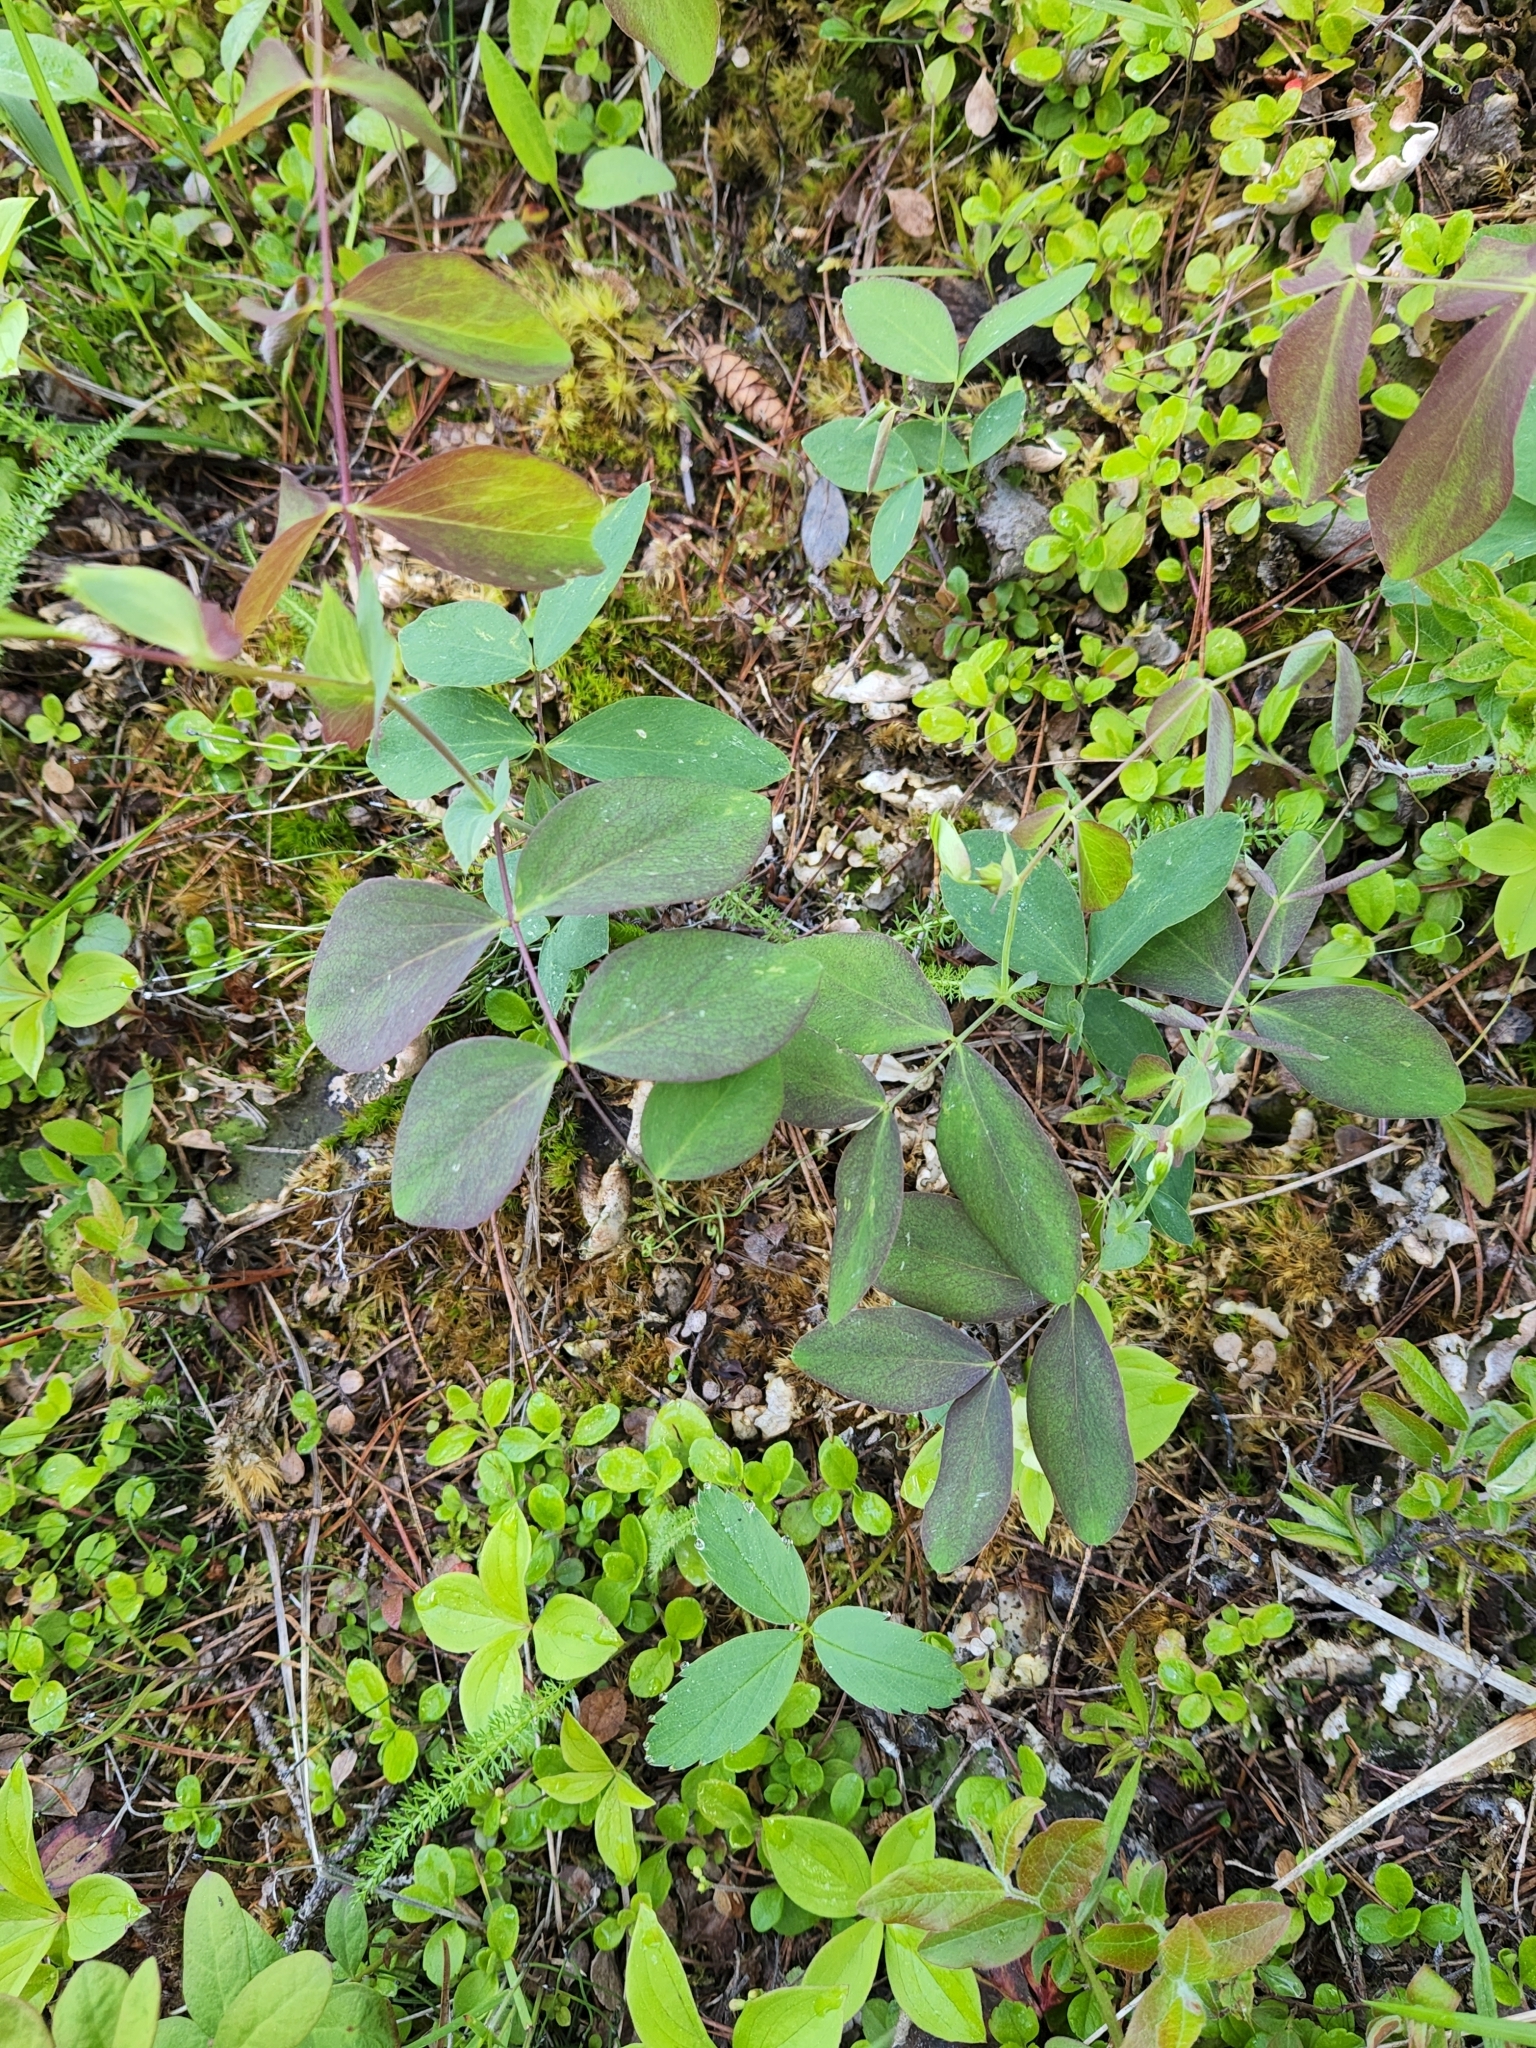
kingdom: Plantae
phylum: Tracheophyta
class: Magnoliopsida
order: Fabales
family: Fabaceae
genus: Lathyrus
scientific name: Lathyrus ochroleucus
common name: Pale vetchling
